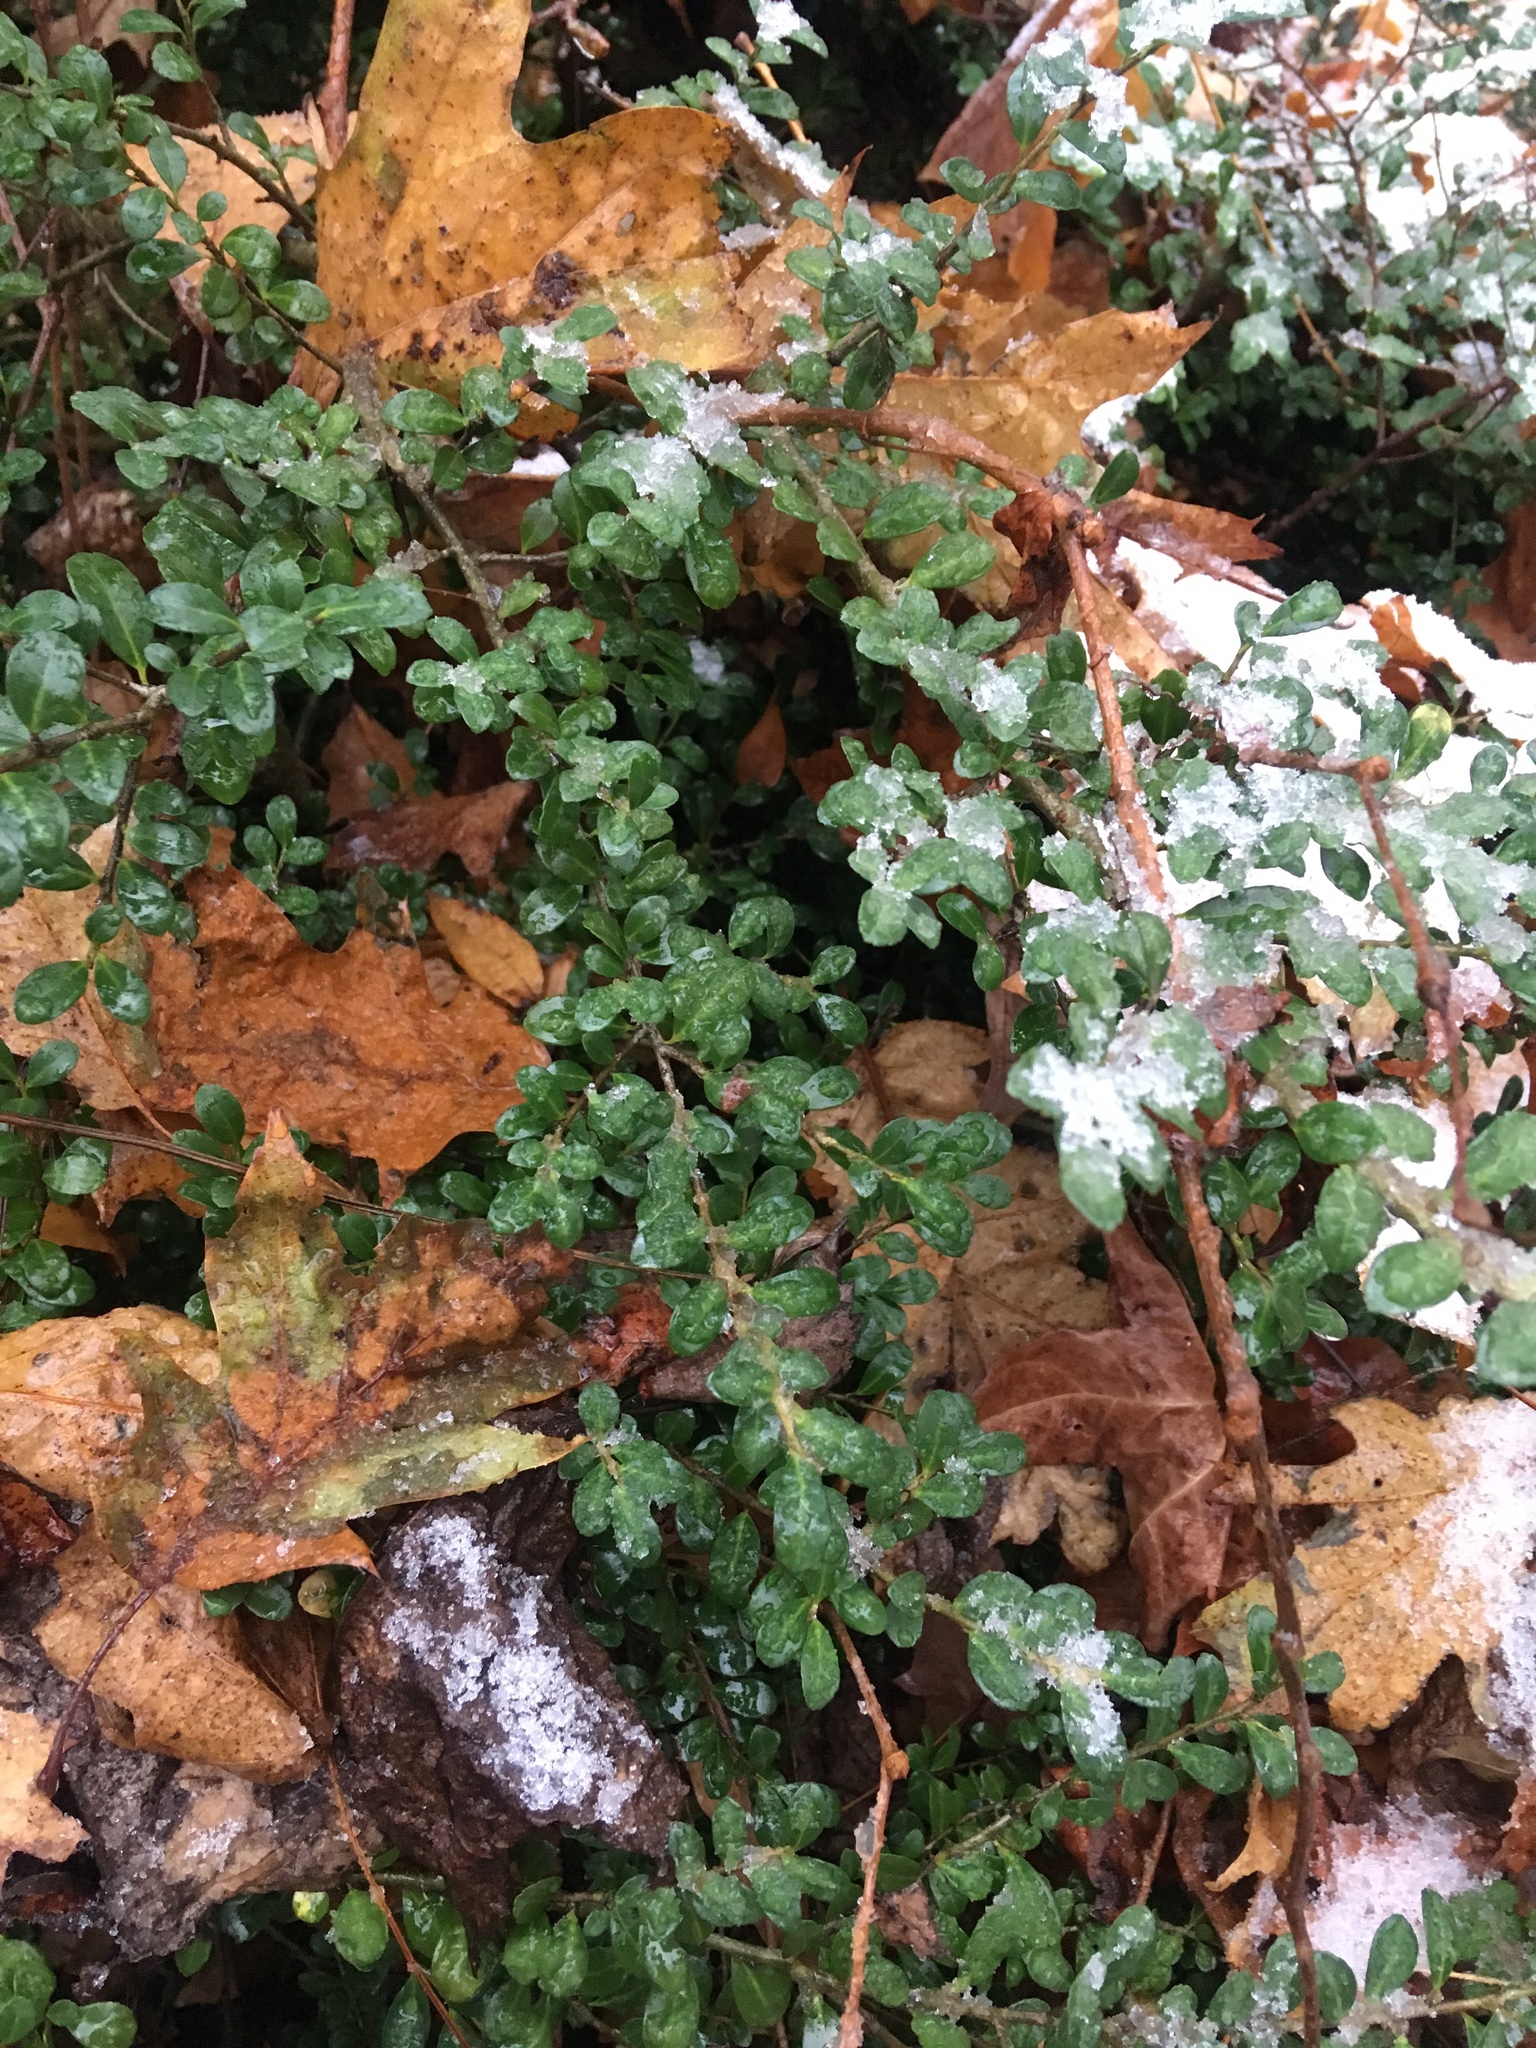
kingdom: Plantae
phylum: Tracheophyta
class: Magnoliopsida
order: Aquifoliales
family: Aquifoliaceae
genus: Ilex
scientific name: Ilex crenata
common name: Japanese holly
